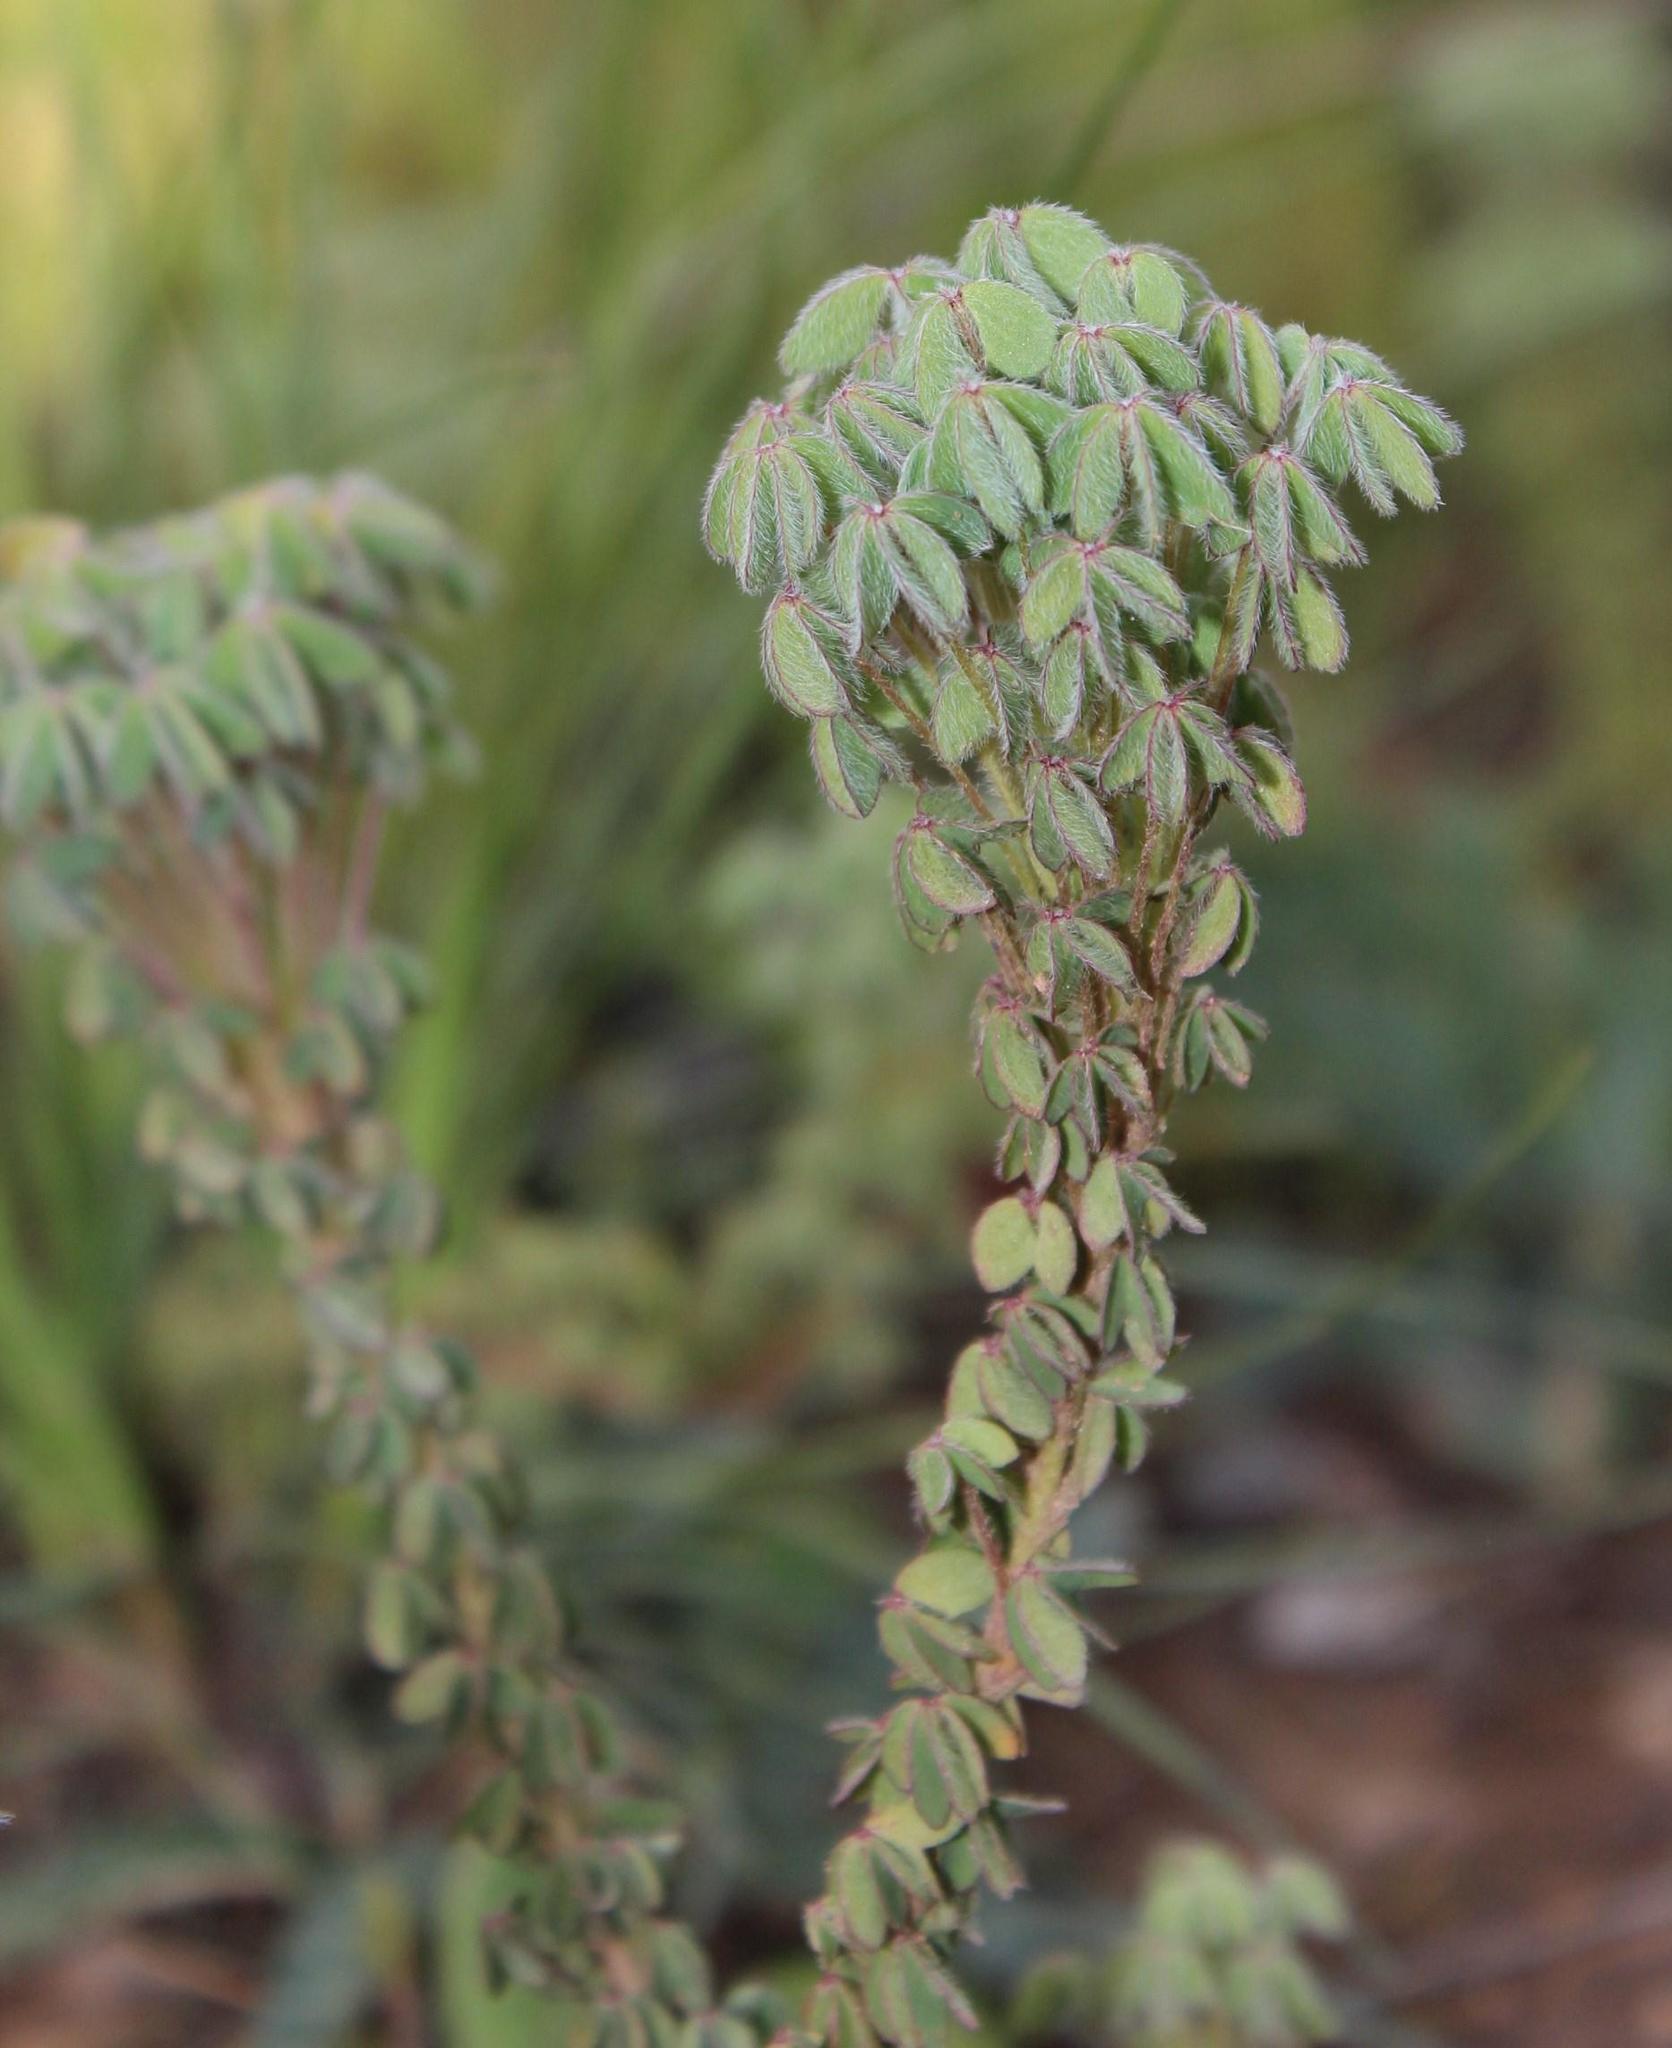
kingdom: Plantae
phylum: Tracheophyta
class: Magnoliopsida
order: Oxalidales
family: Oxalidaceae
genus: Oxalis
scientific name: Oxalis heterophylla
